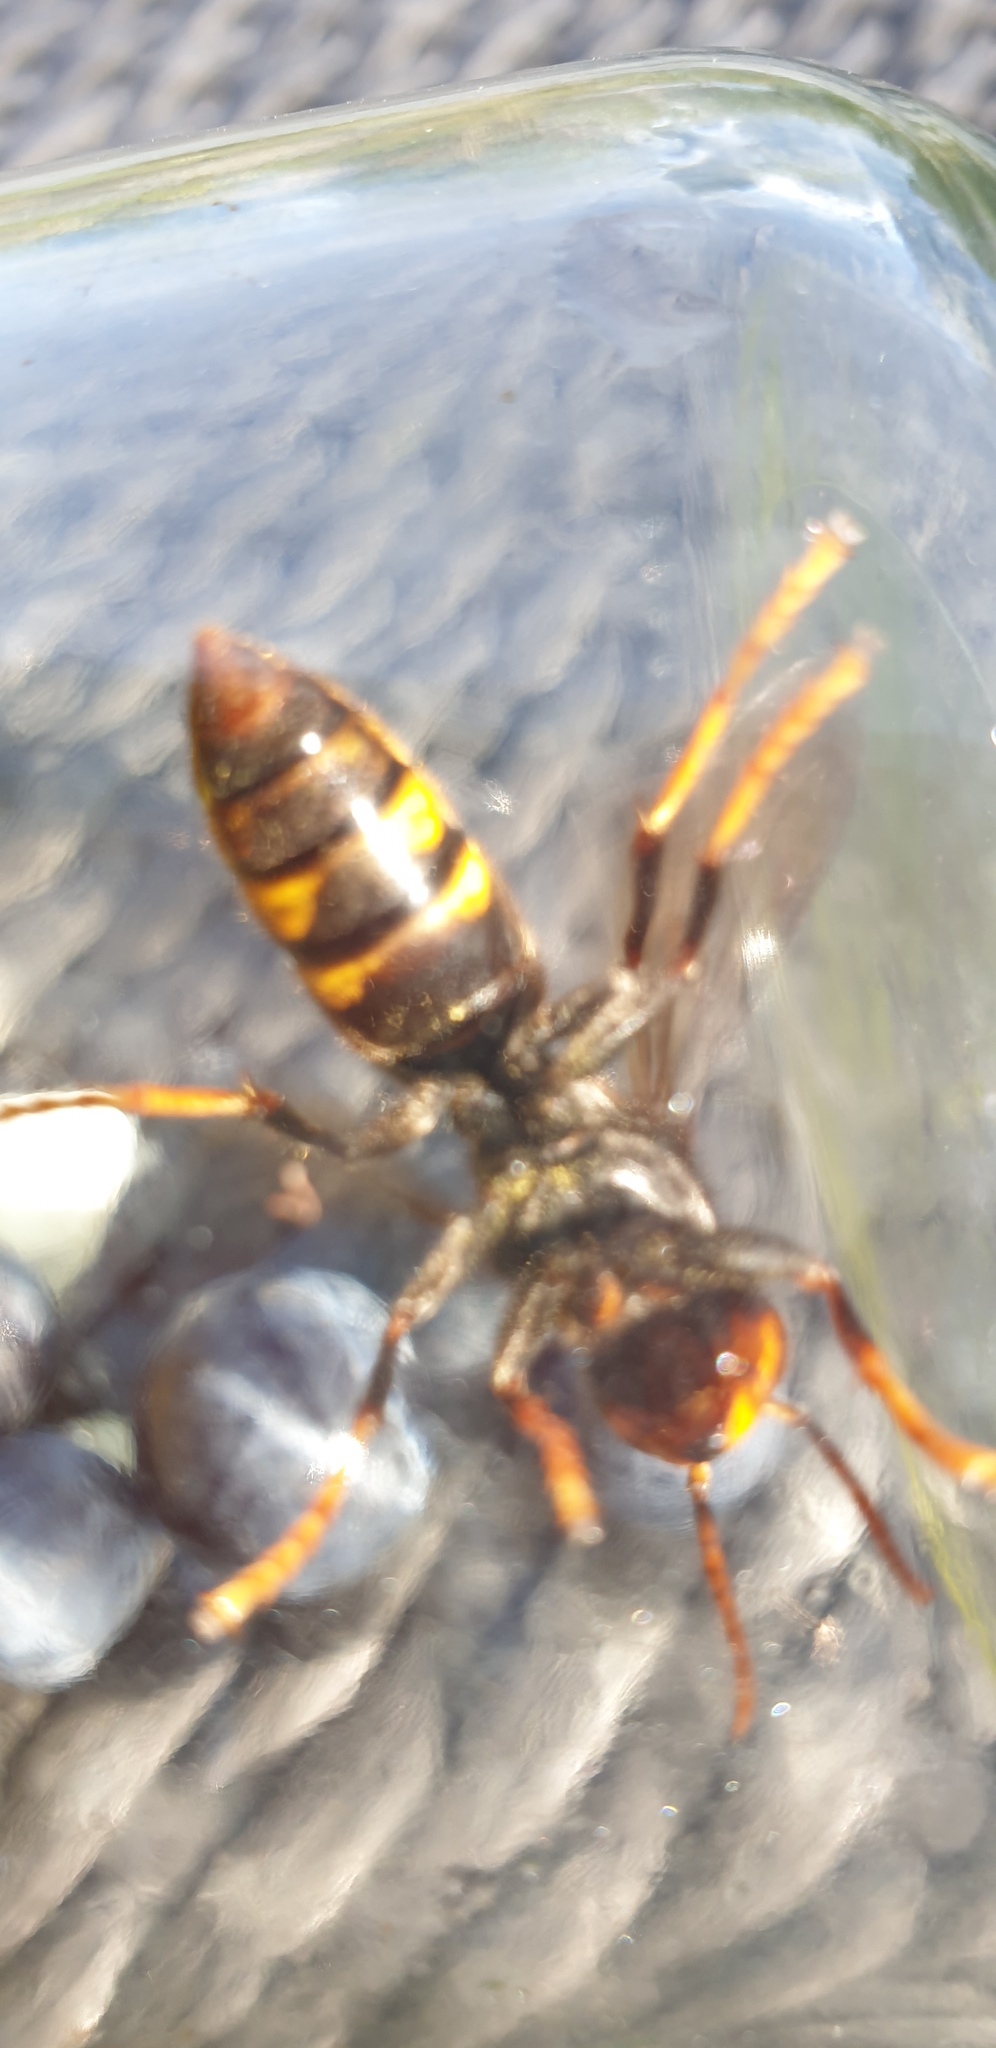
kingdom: Animalia
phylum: Arthropoda
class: Insecta
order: Hymenoptera
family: Vespidae
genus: Vespa
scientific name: Vespa velutina
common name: Asian hornet
